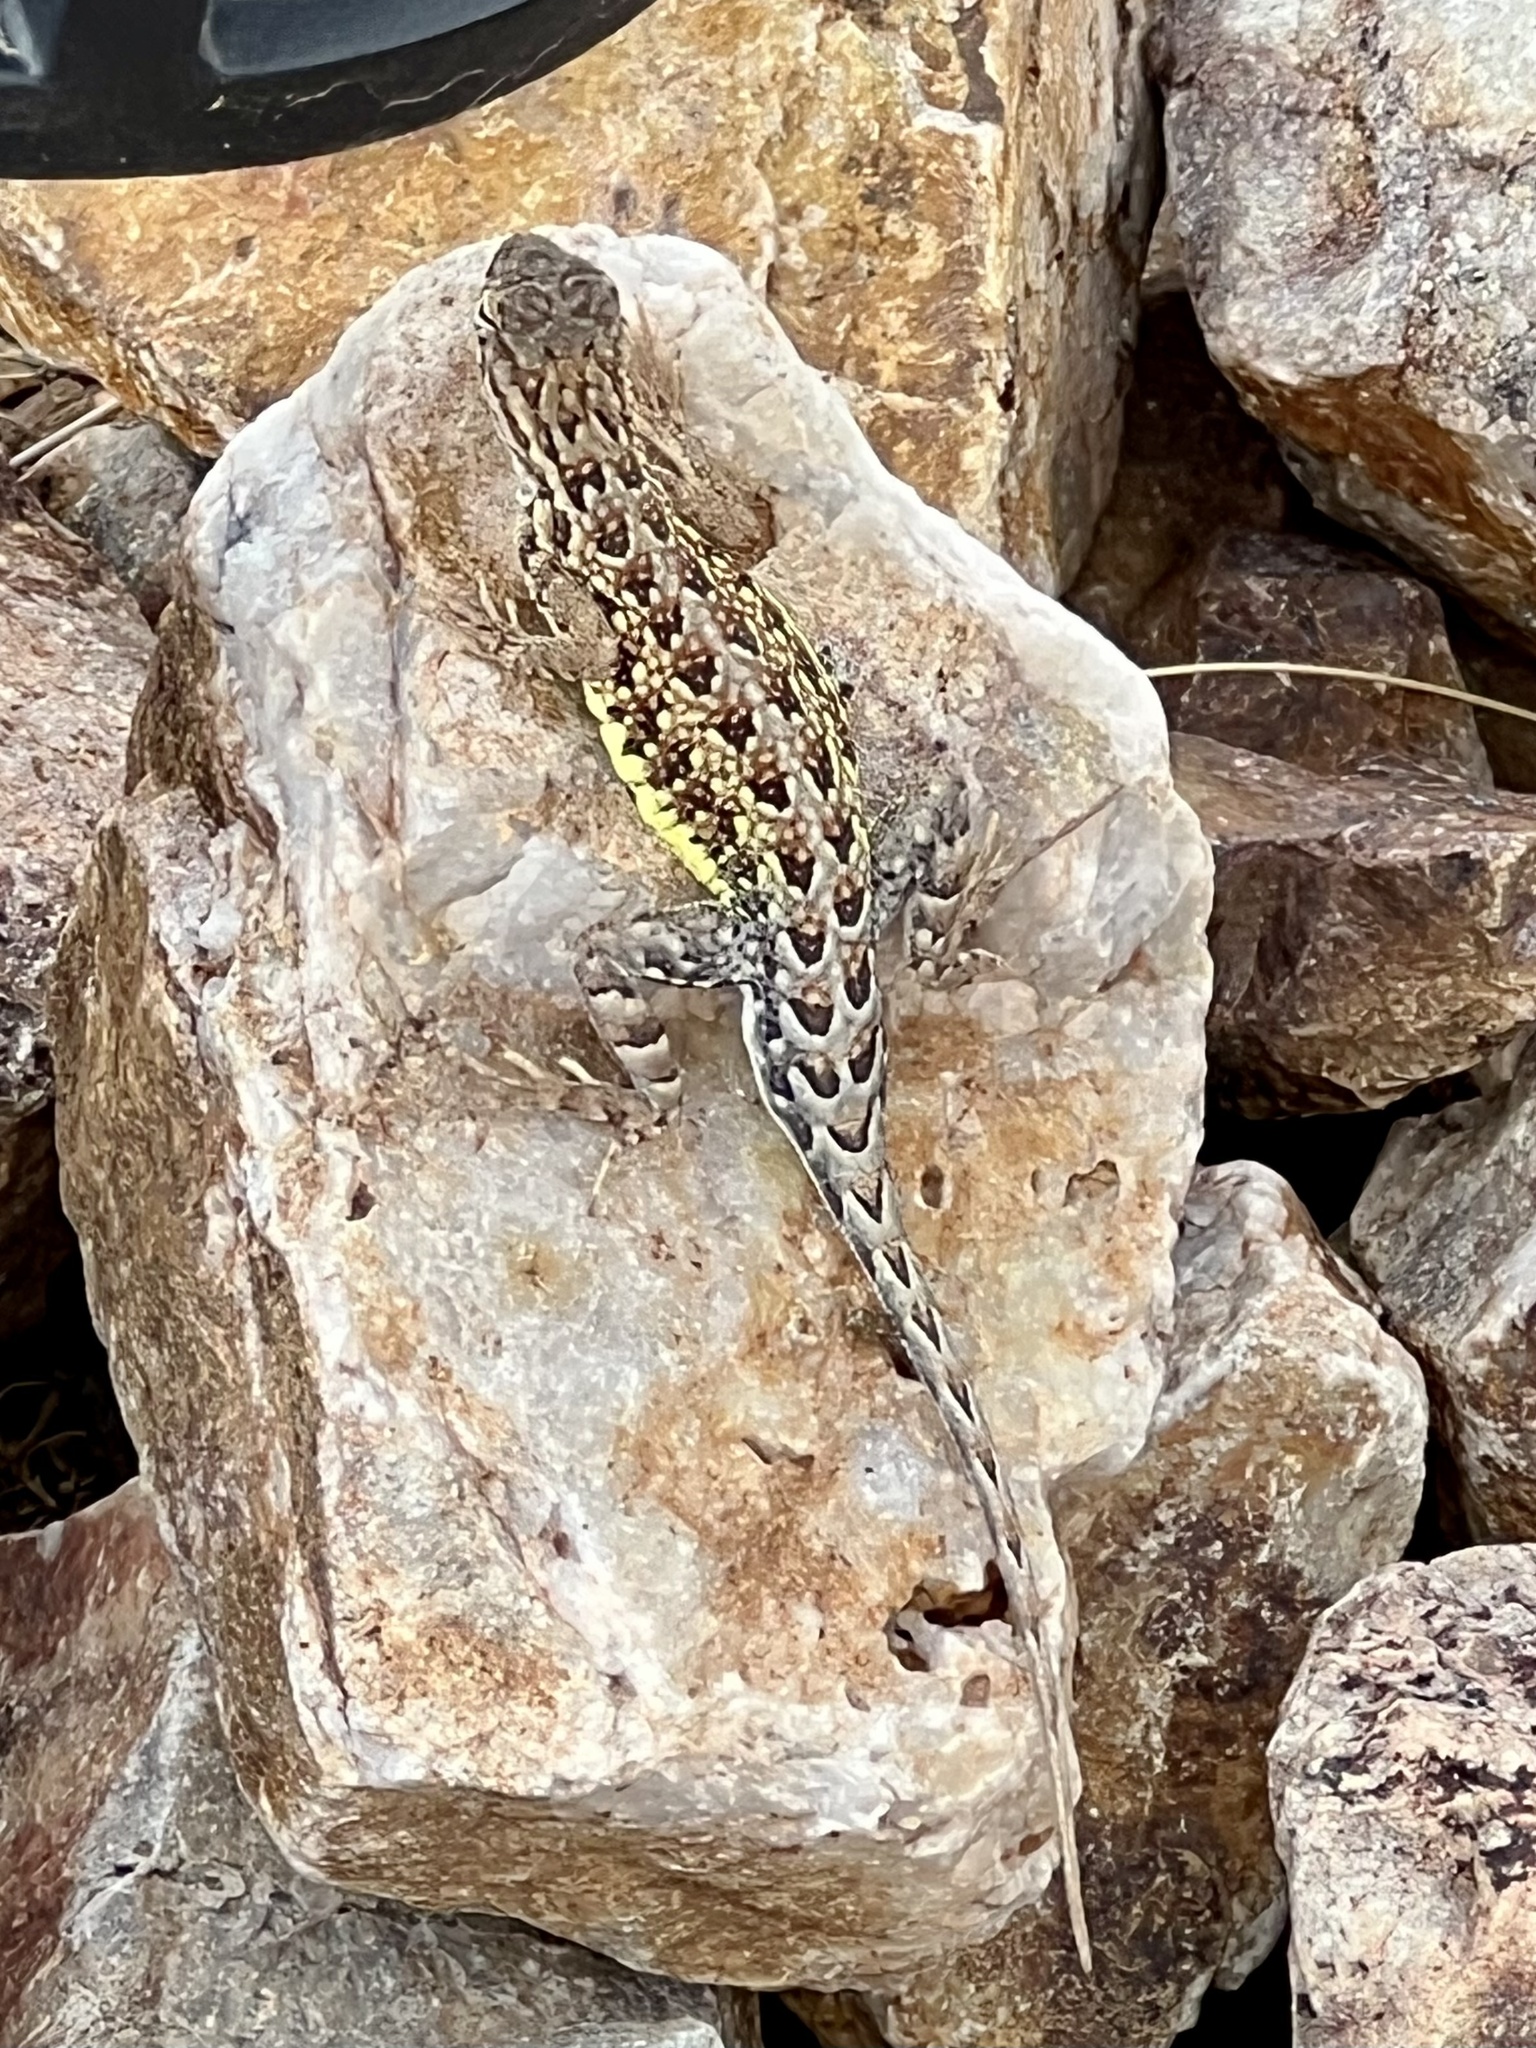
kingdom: Animalia
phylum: Chordata
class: Squamata
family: Phrynosomatidae
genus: Holbrookia
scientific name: Holbrookia elegans
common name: Elegant earless lizard
